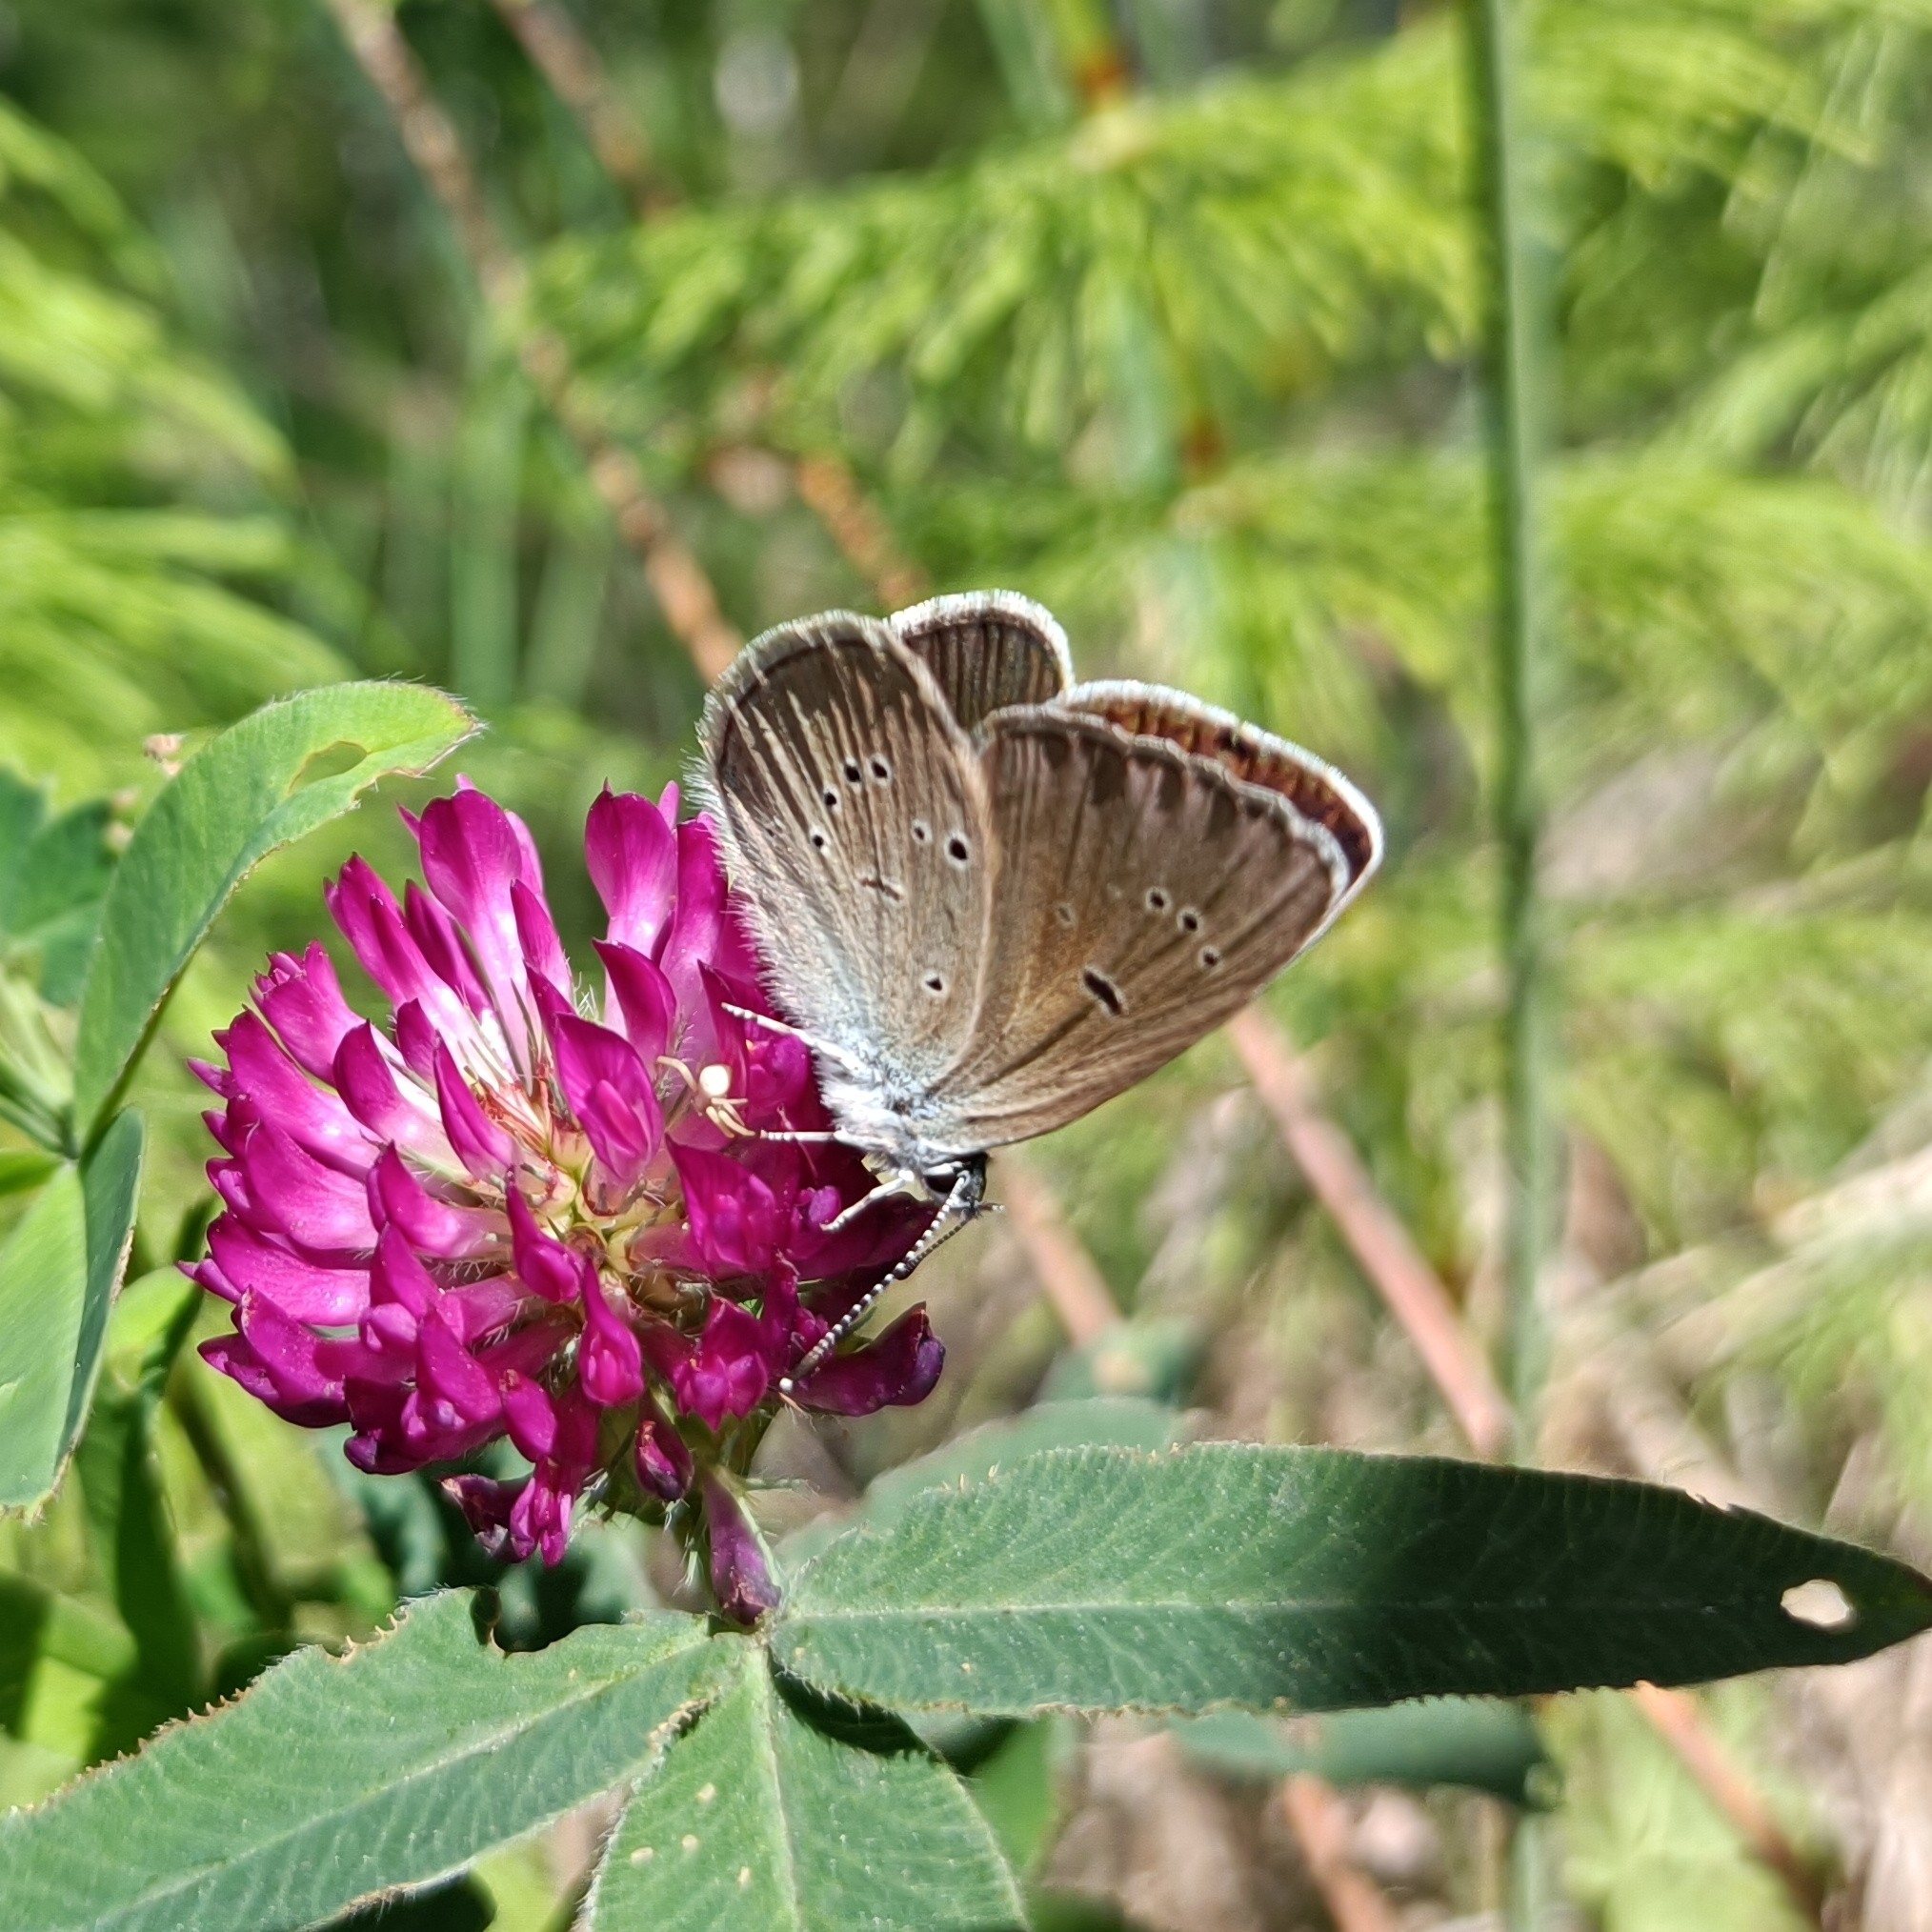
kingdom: Animalia
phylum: Arthropoda
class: Insecta
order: Lepidoptera
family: Lycaenidae
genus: Cyaniris
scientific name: Cyaniris semiargus
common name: Mazarine blue
